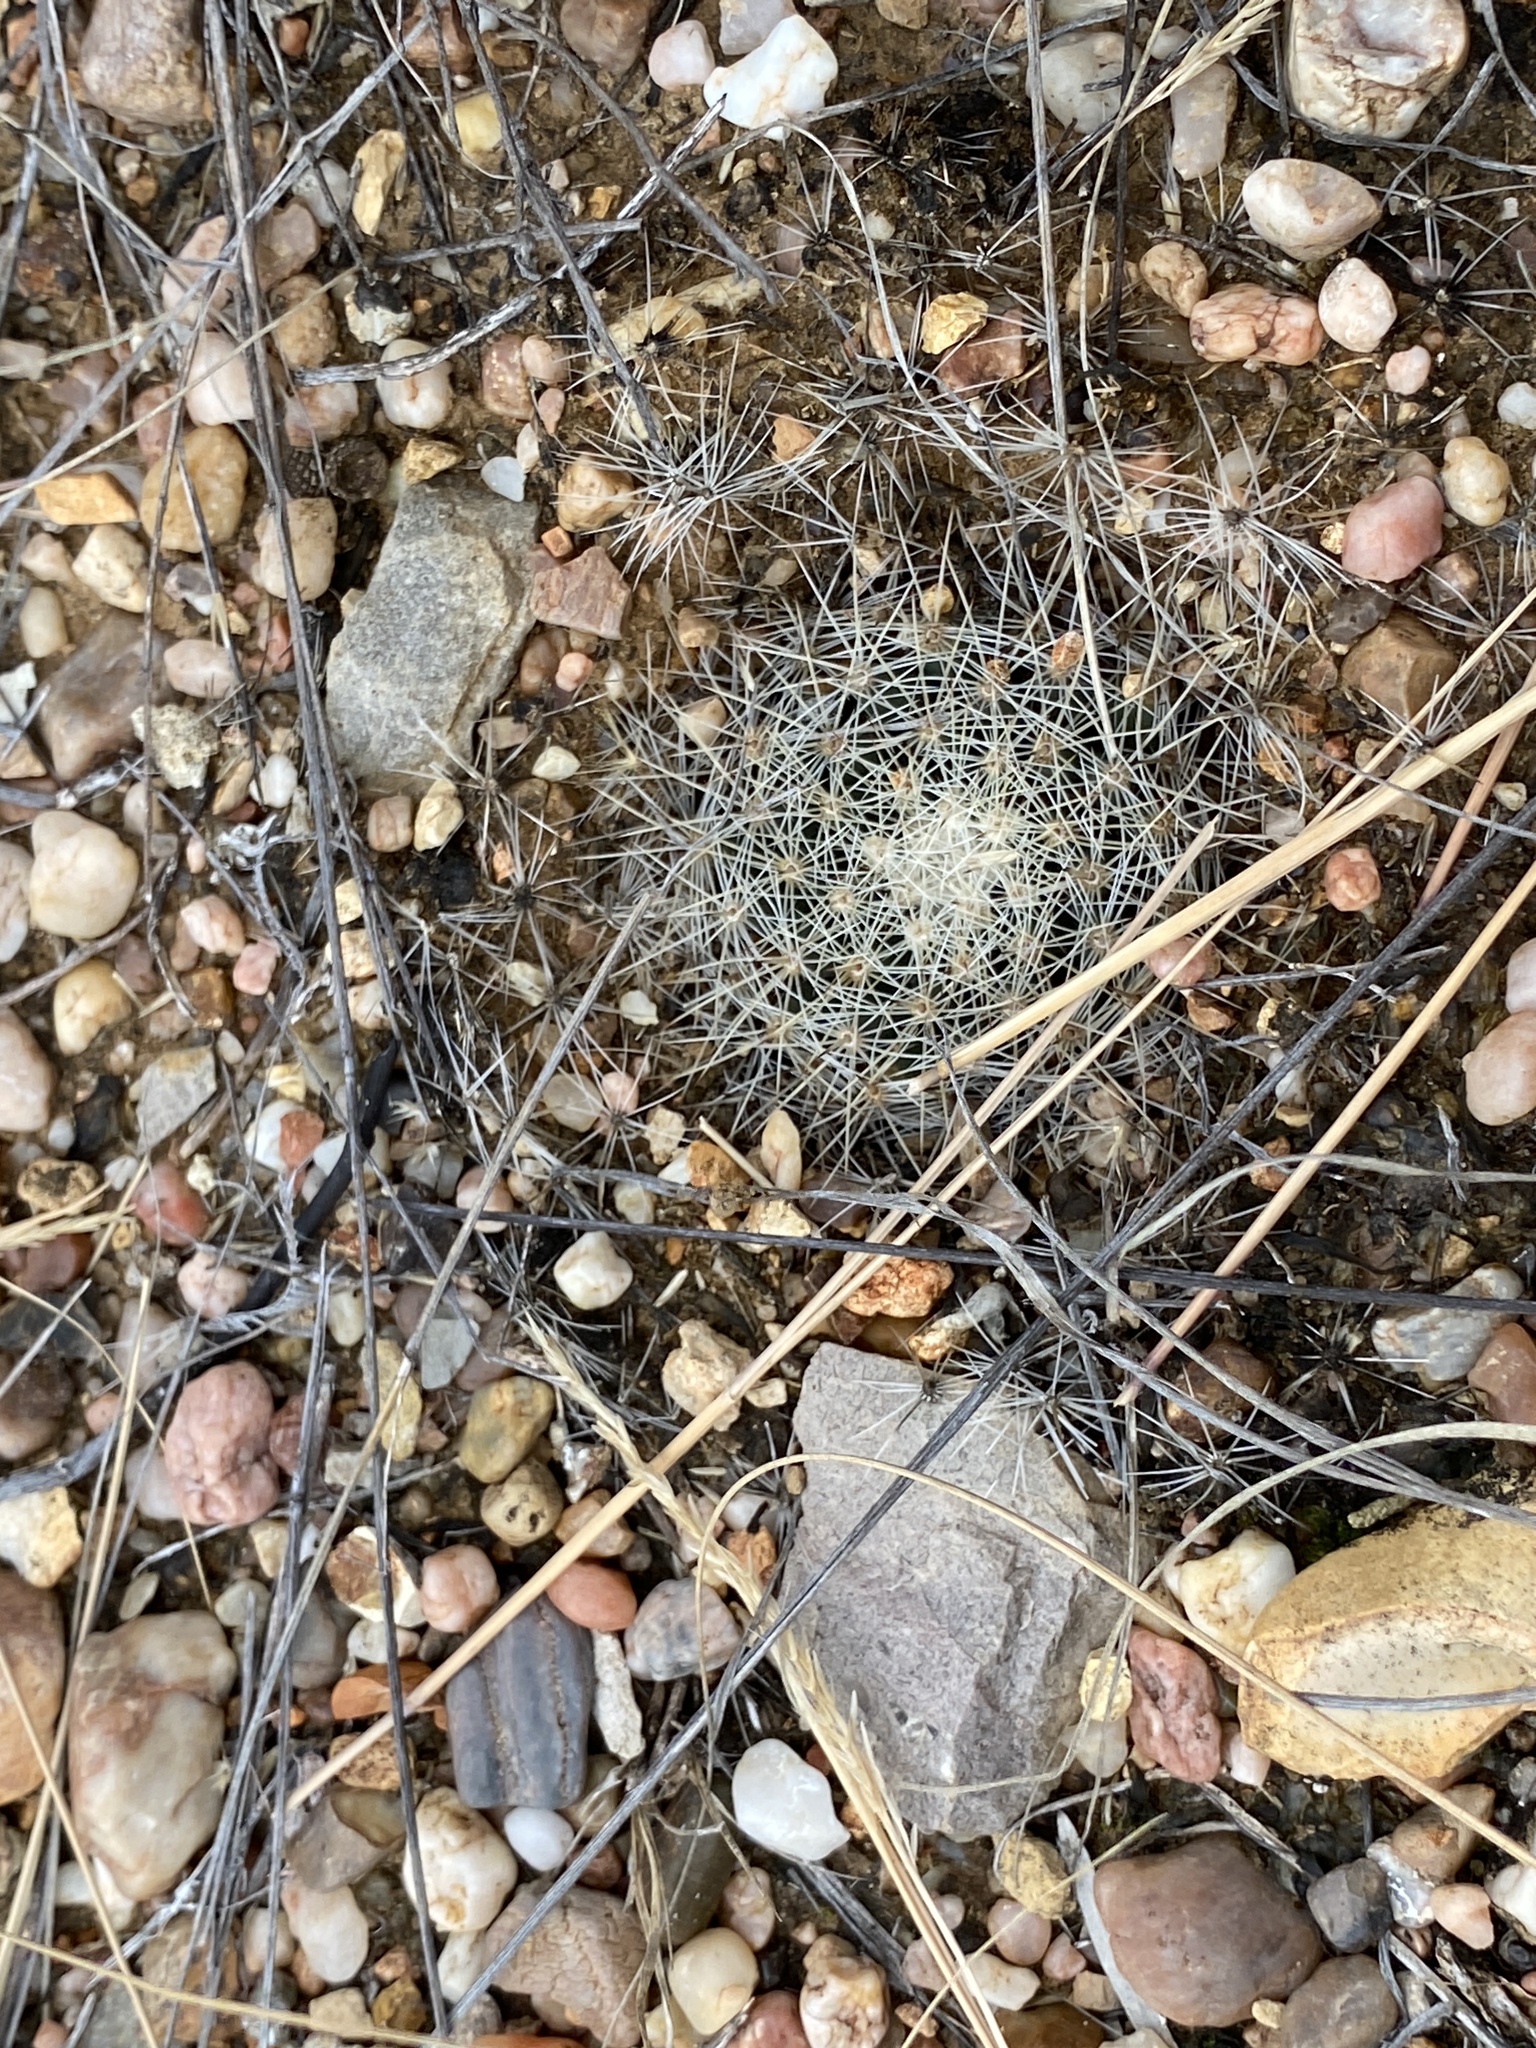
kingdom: Plantae
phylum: Tracheophyta
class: Magnoliopsida
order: Caryophyllales
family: Cactaceae
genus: Mammillaria
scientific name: Mammillaria heyderi
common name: Little nipple cactus
